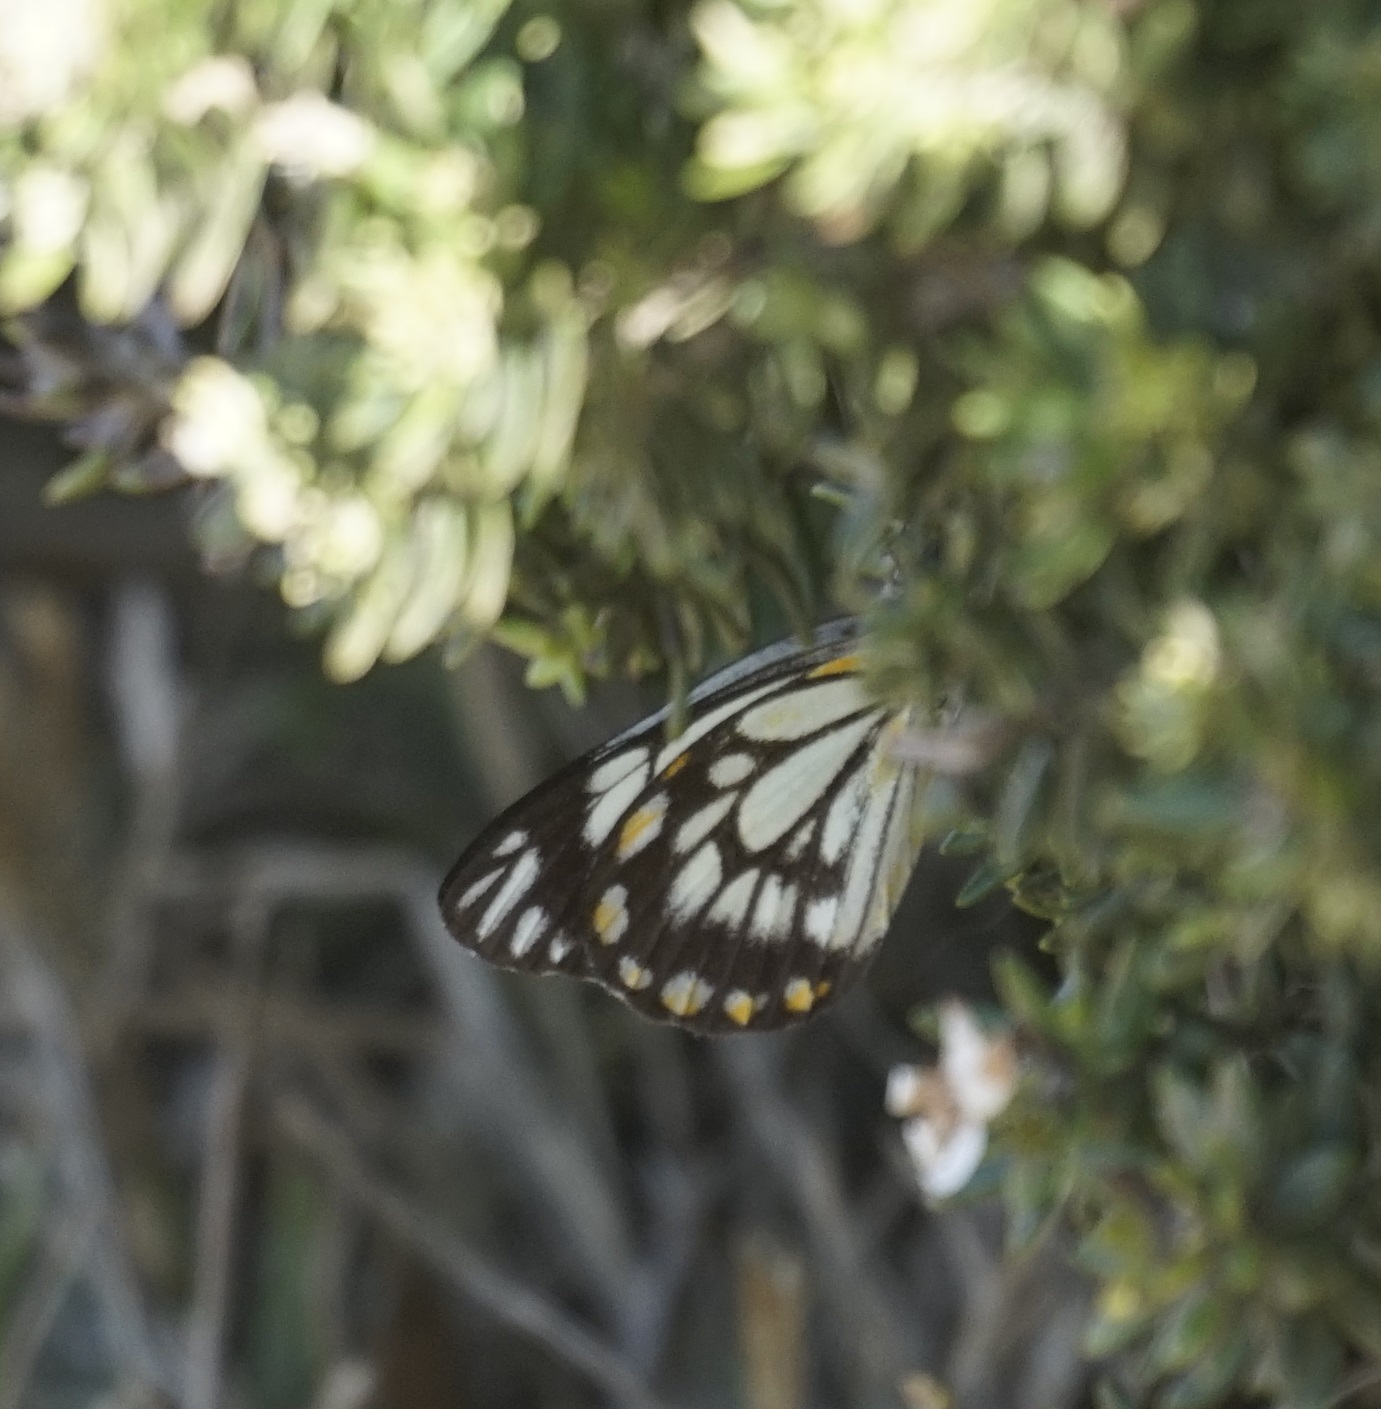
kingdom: Animalia
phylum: Arthropoda
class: Insecta
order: Lepidoptera
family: Pieridae
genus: Belenois
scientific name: Belenois java
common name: Caper white
